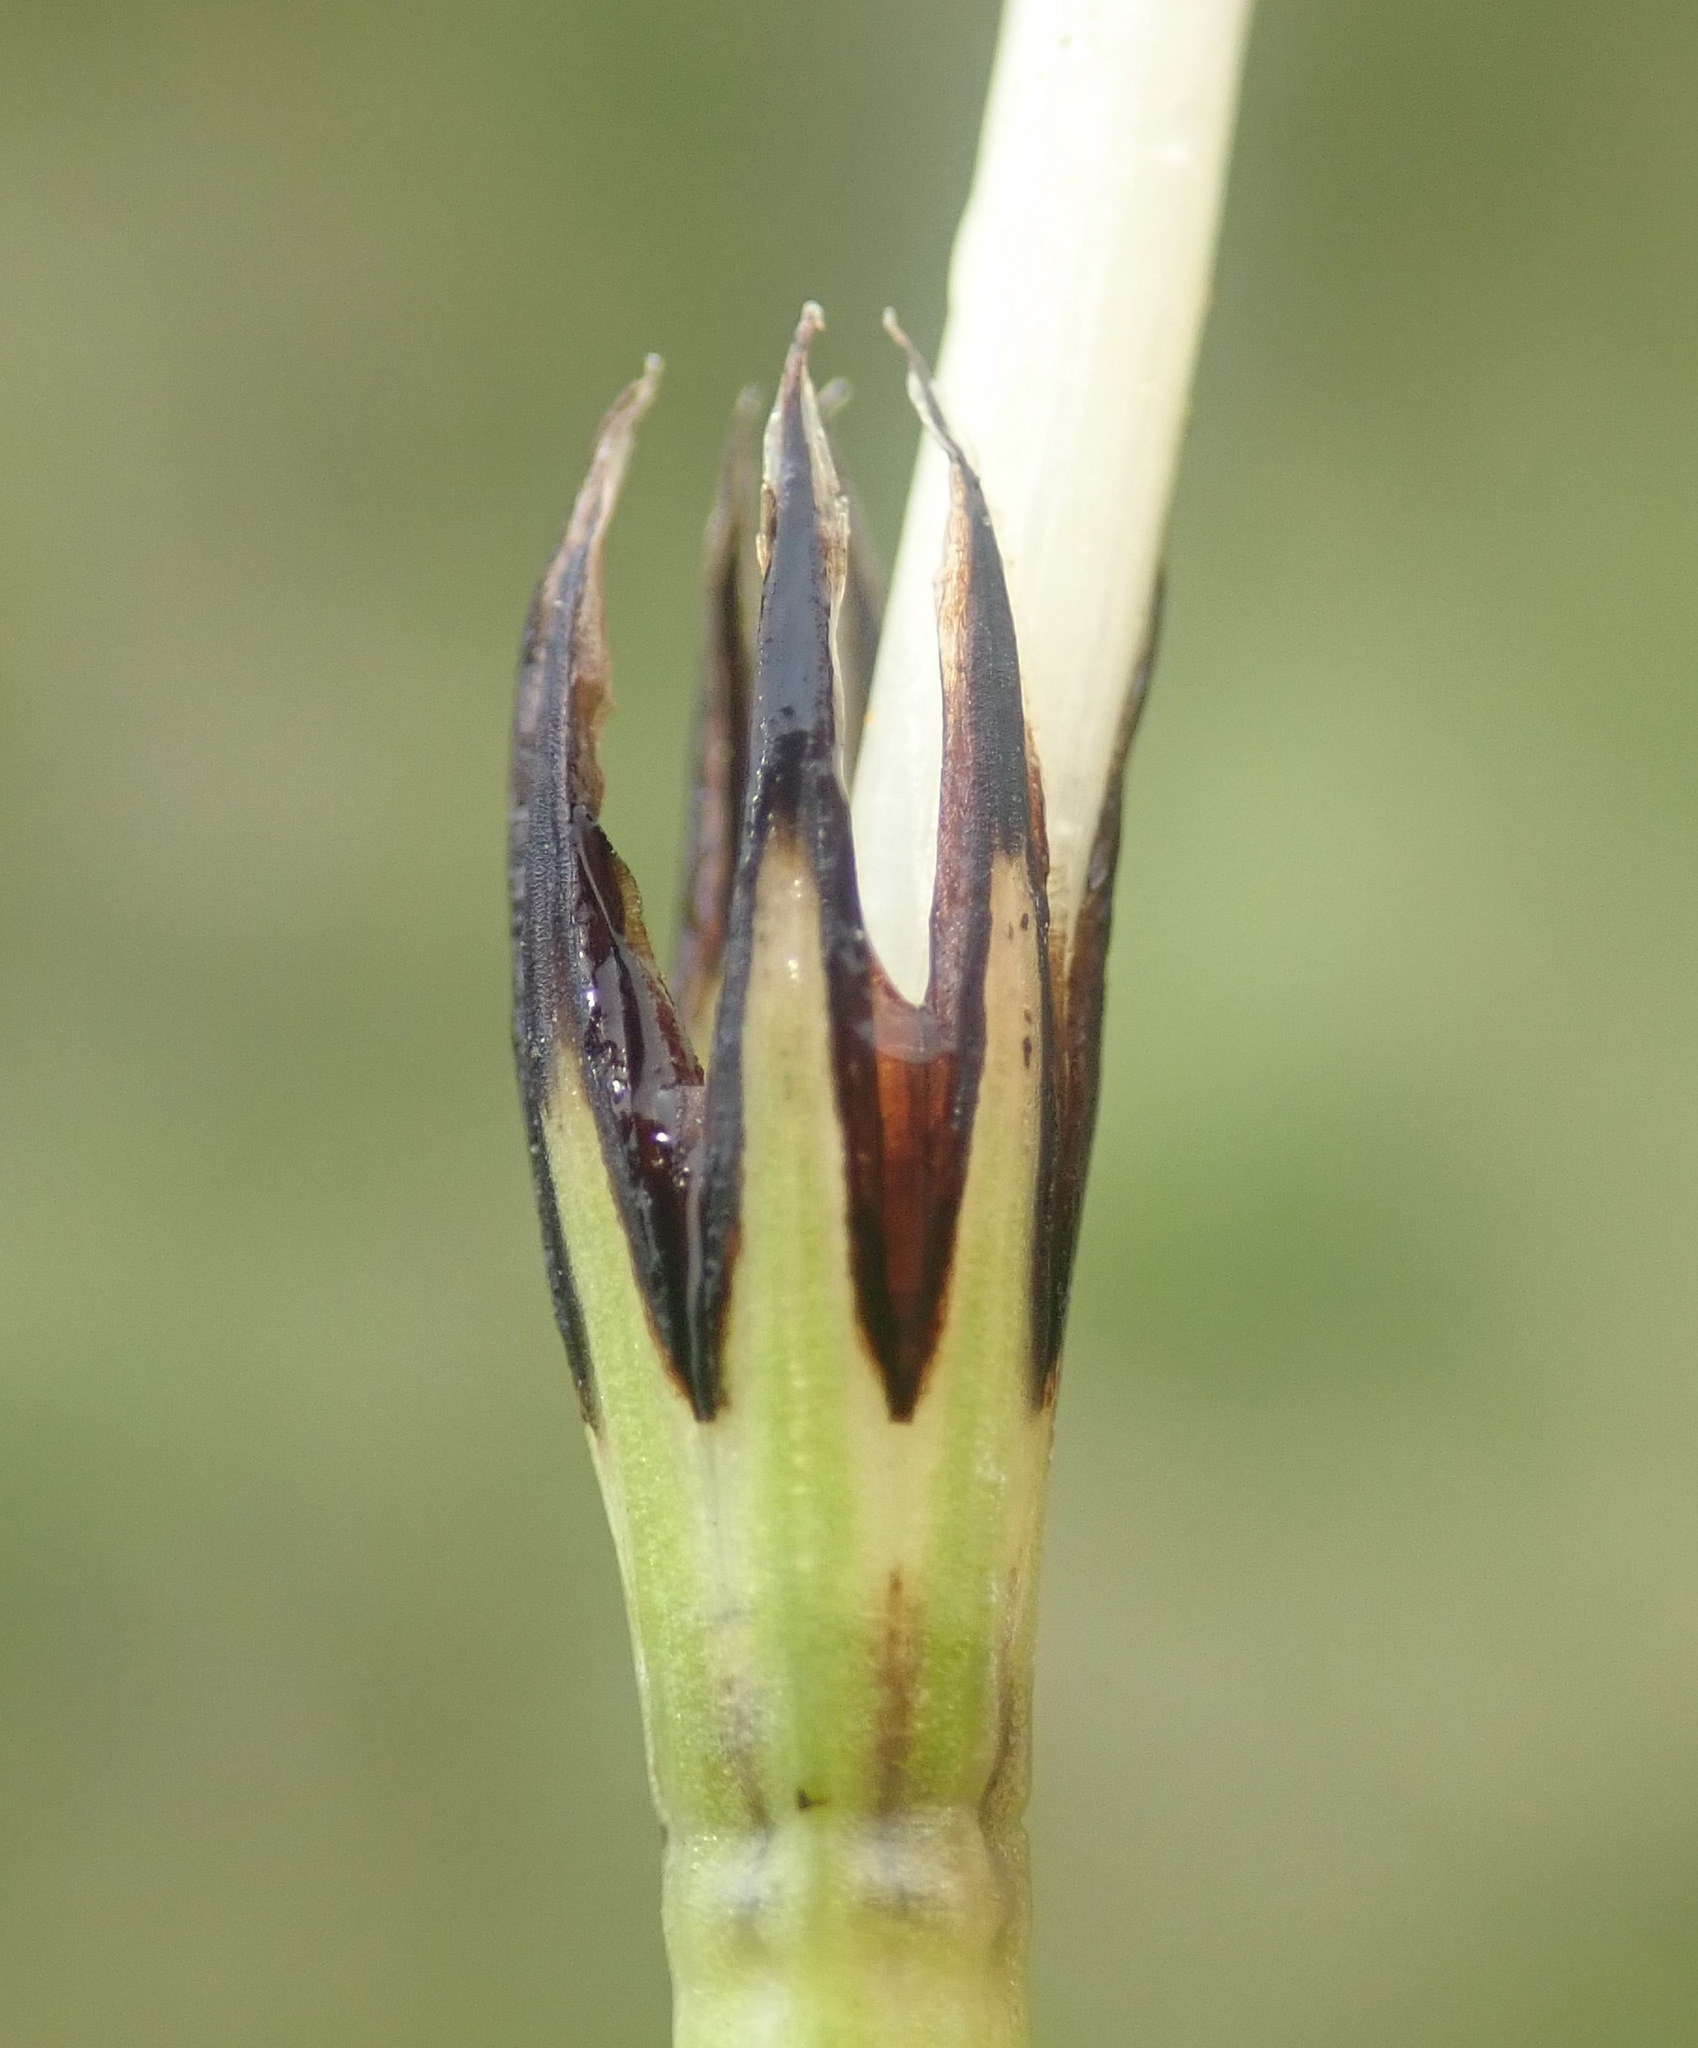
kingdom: Plantae
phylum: Tracheophyta
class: Polypodiopsida
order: Equisetales
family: Equisetaceae
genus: Equisetum
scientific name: Equisetum palustre
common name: Marsh horsetail
